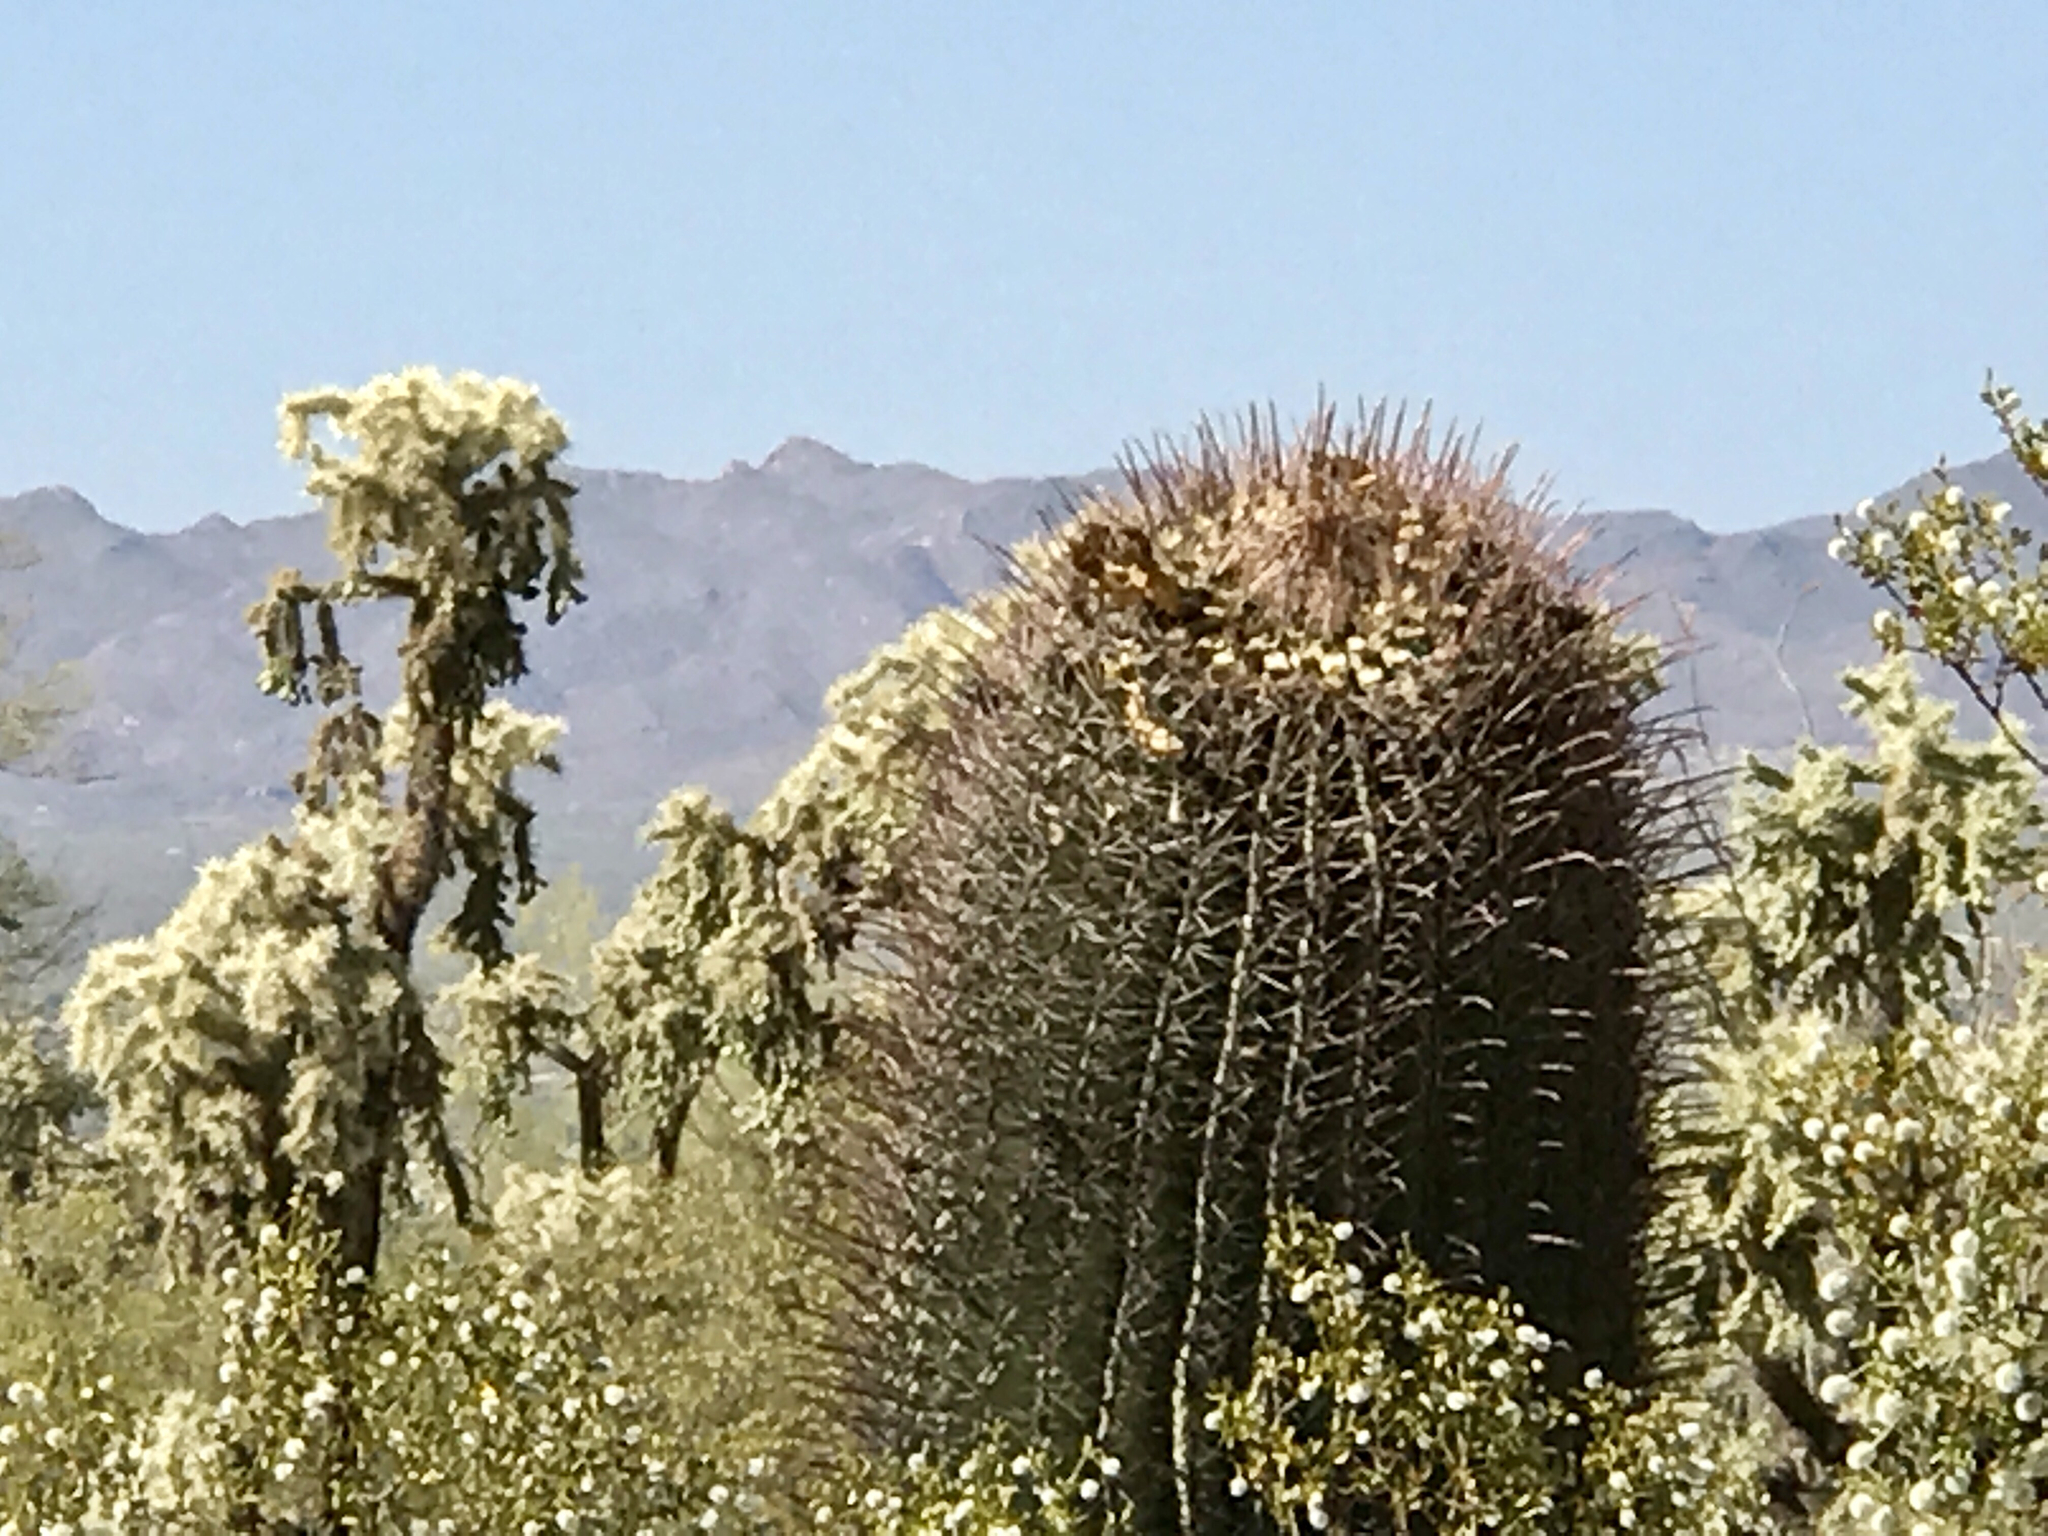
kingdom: Plantae
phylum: Tracheophyta
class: Magnoliopsida
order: Caryophyllales
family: Cactaceae
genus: Ferocactus
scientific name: Ferocactus wislizeni
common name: Candy barrel cactus
